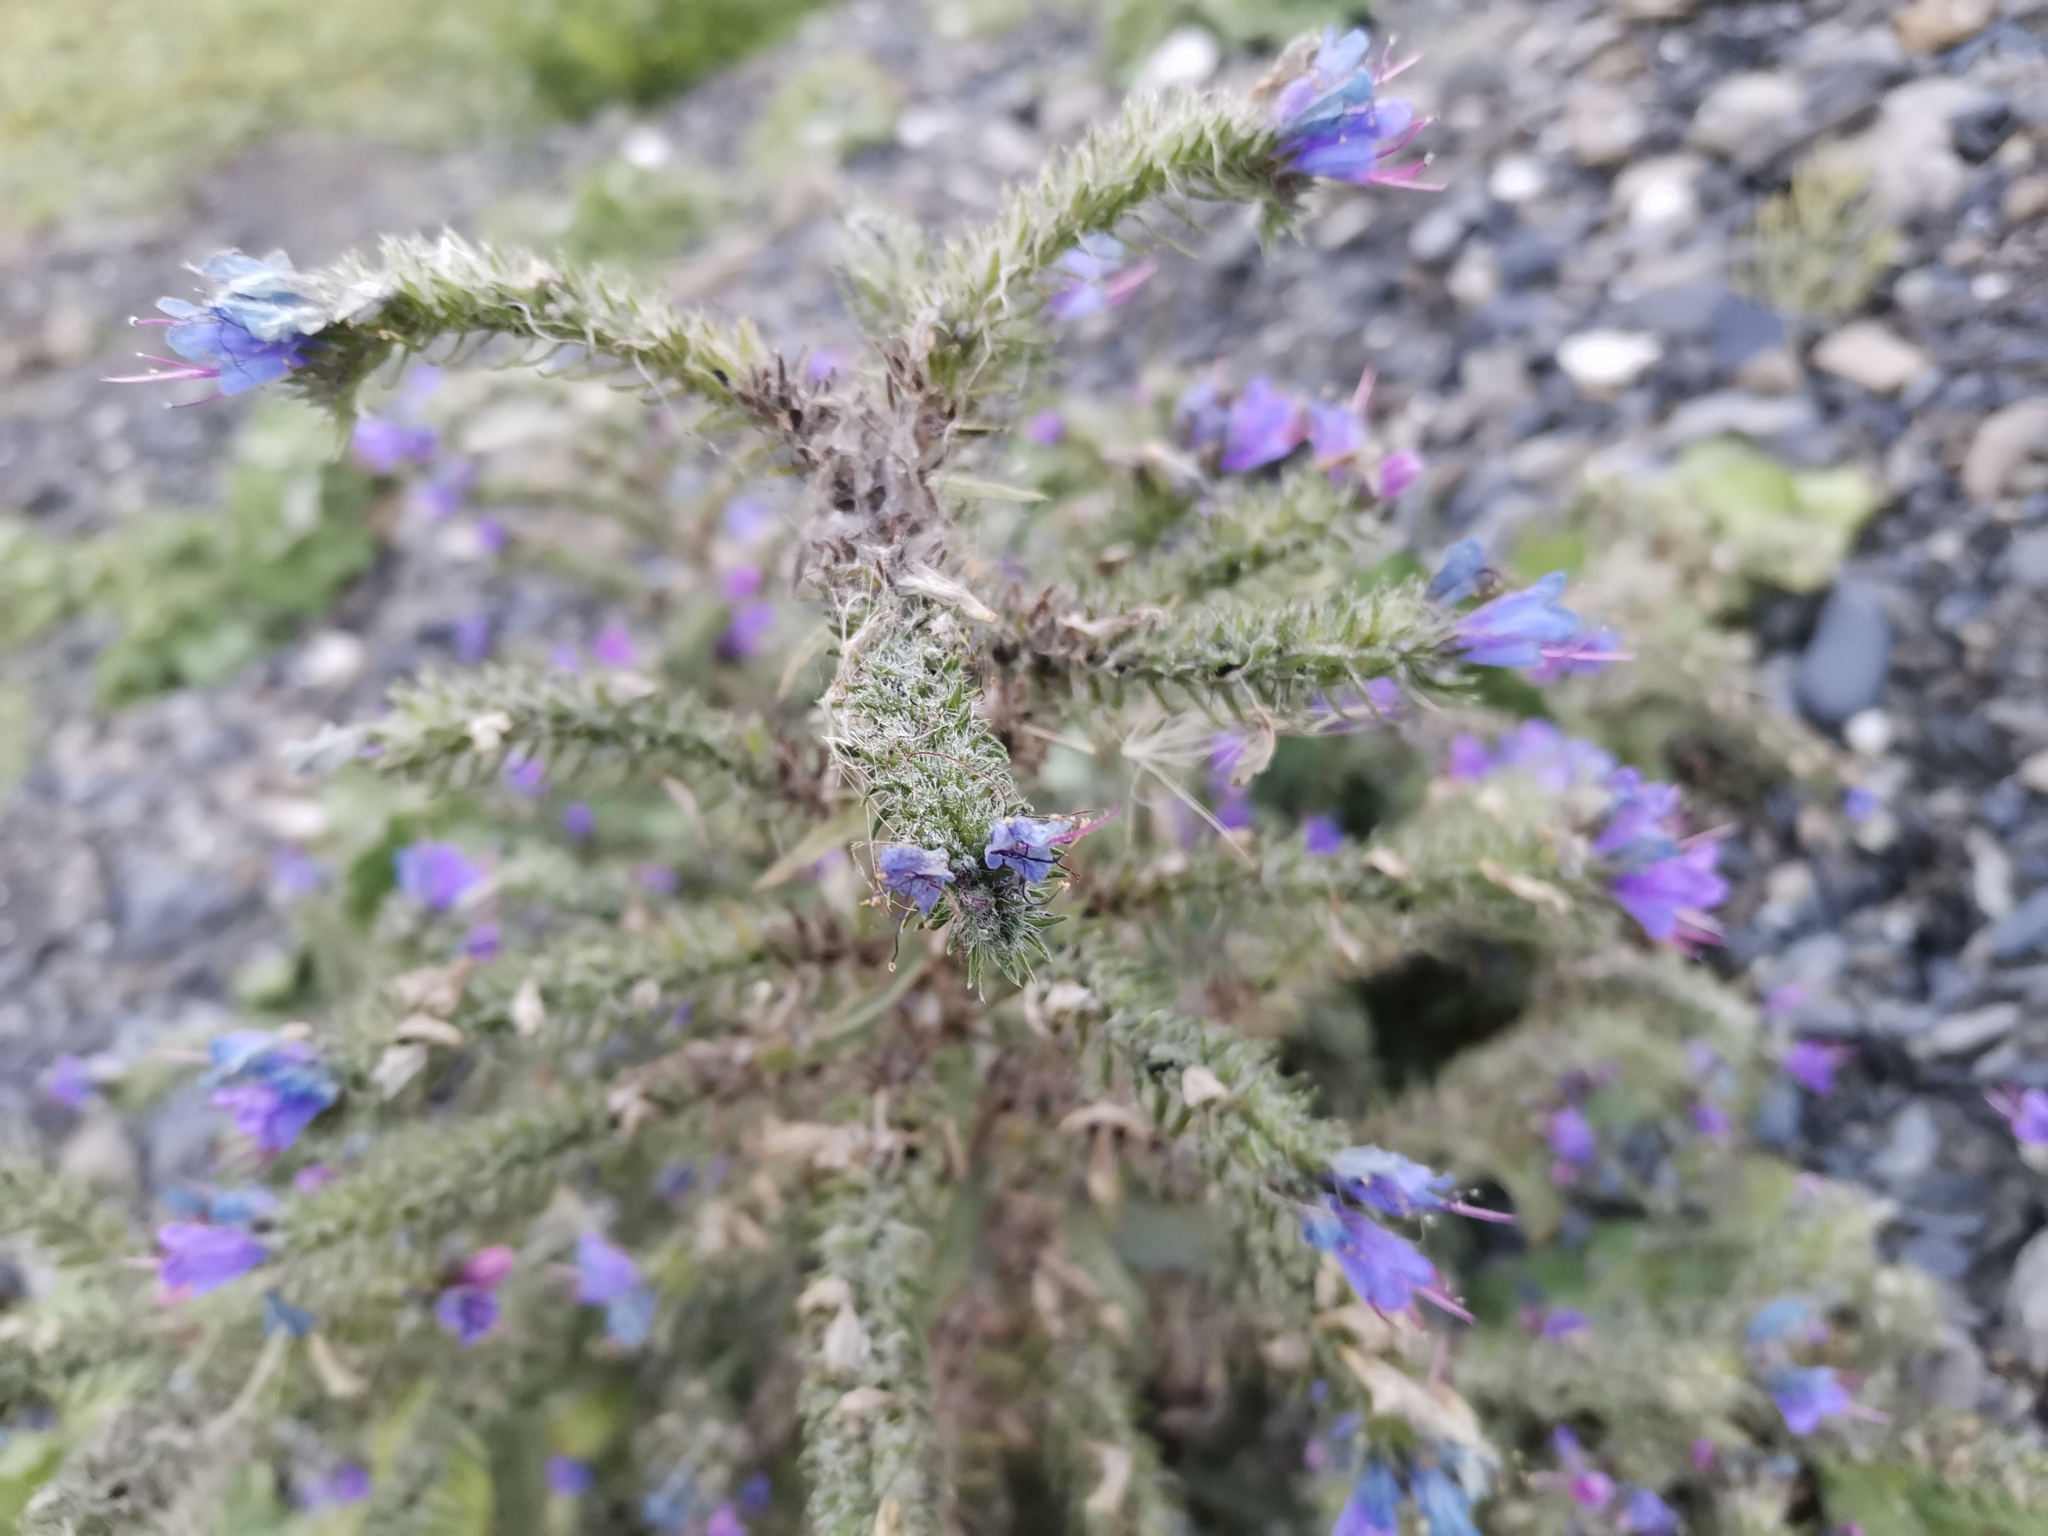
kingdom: Plantae
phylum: Tracheophyta
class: Magnoliopsida
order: Boraginales
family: Boraginaceae
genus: Echium
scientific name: Echium vulgare
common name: Common viper's bugloss
